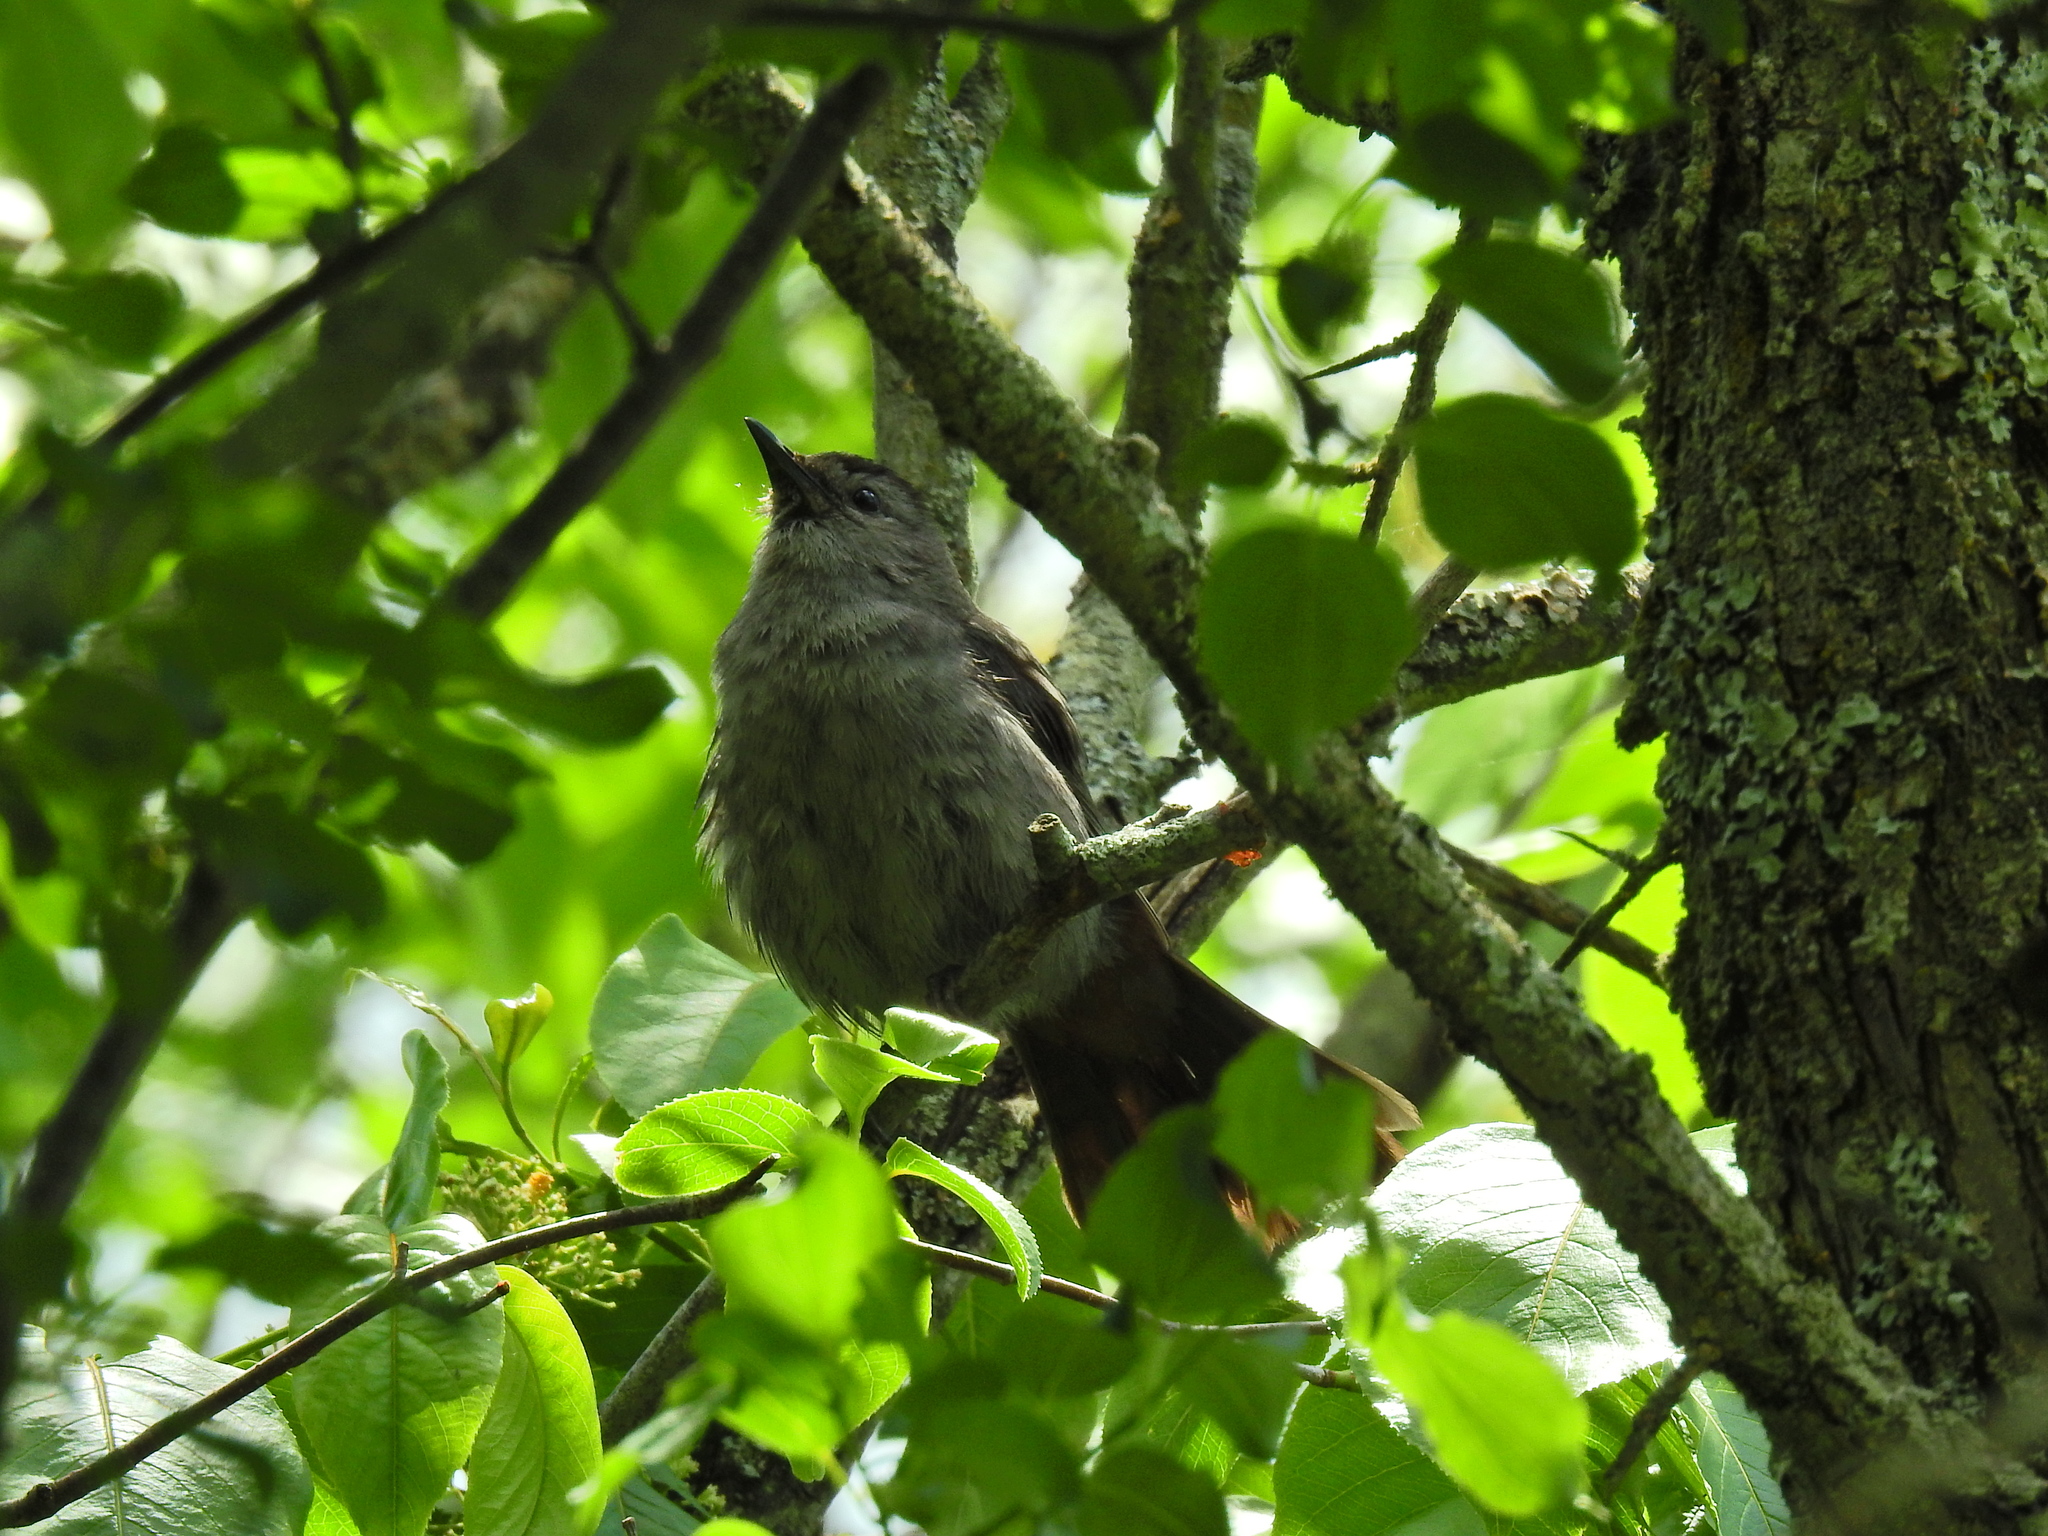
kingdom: Animalia
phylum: Chordata
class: Aves
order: Passeriformes
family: Mimidae
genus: Dumetella
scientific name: Dumetella carolinensis
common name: Gray catbird
